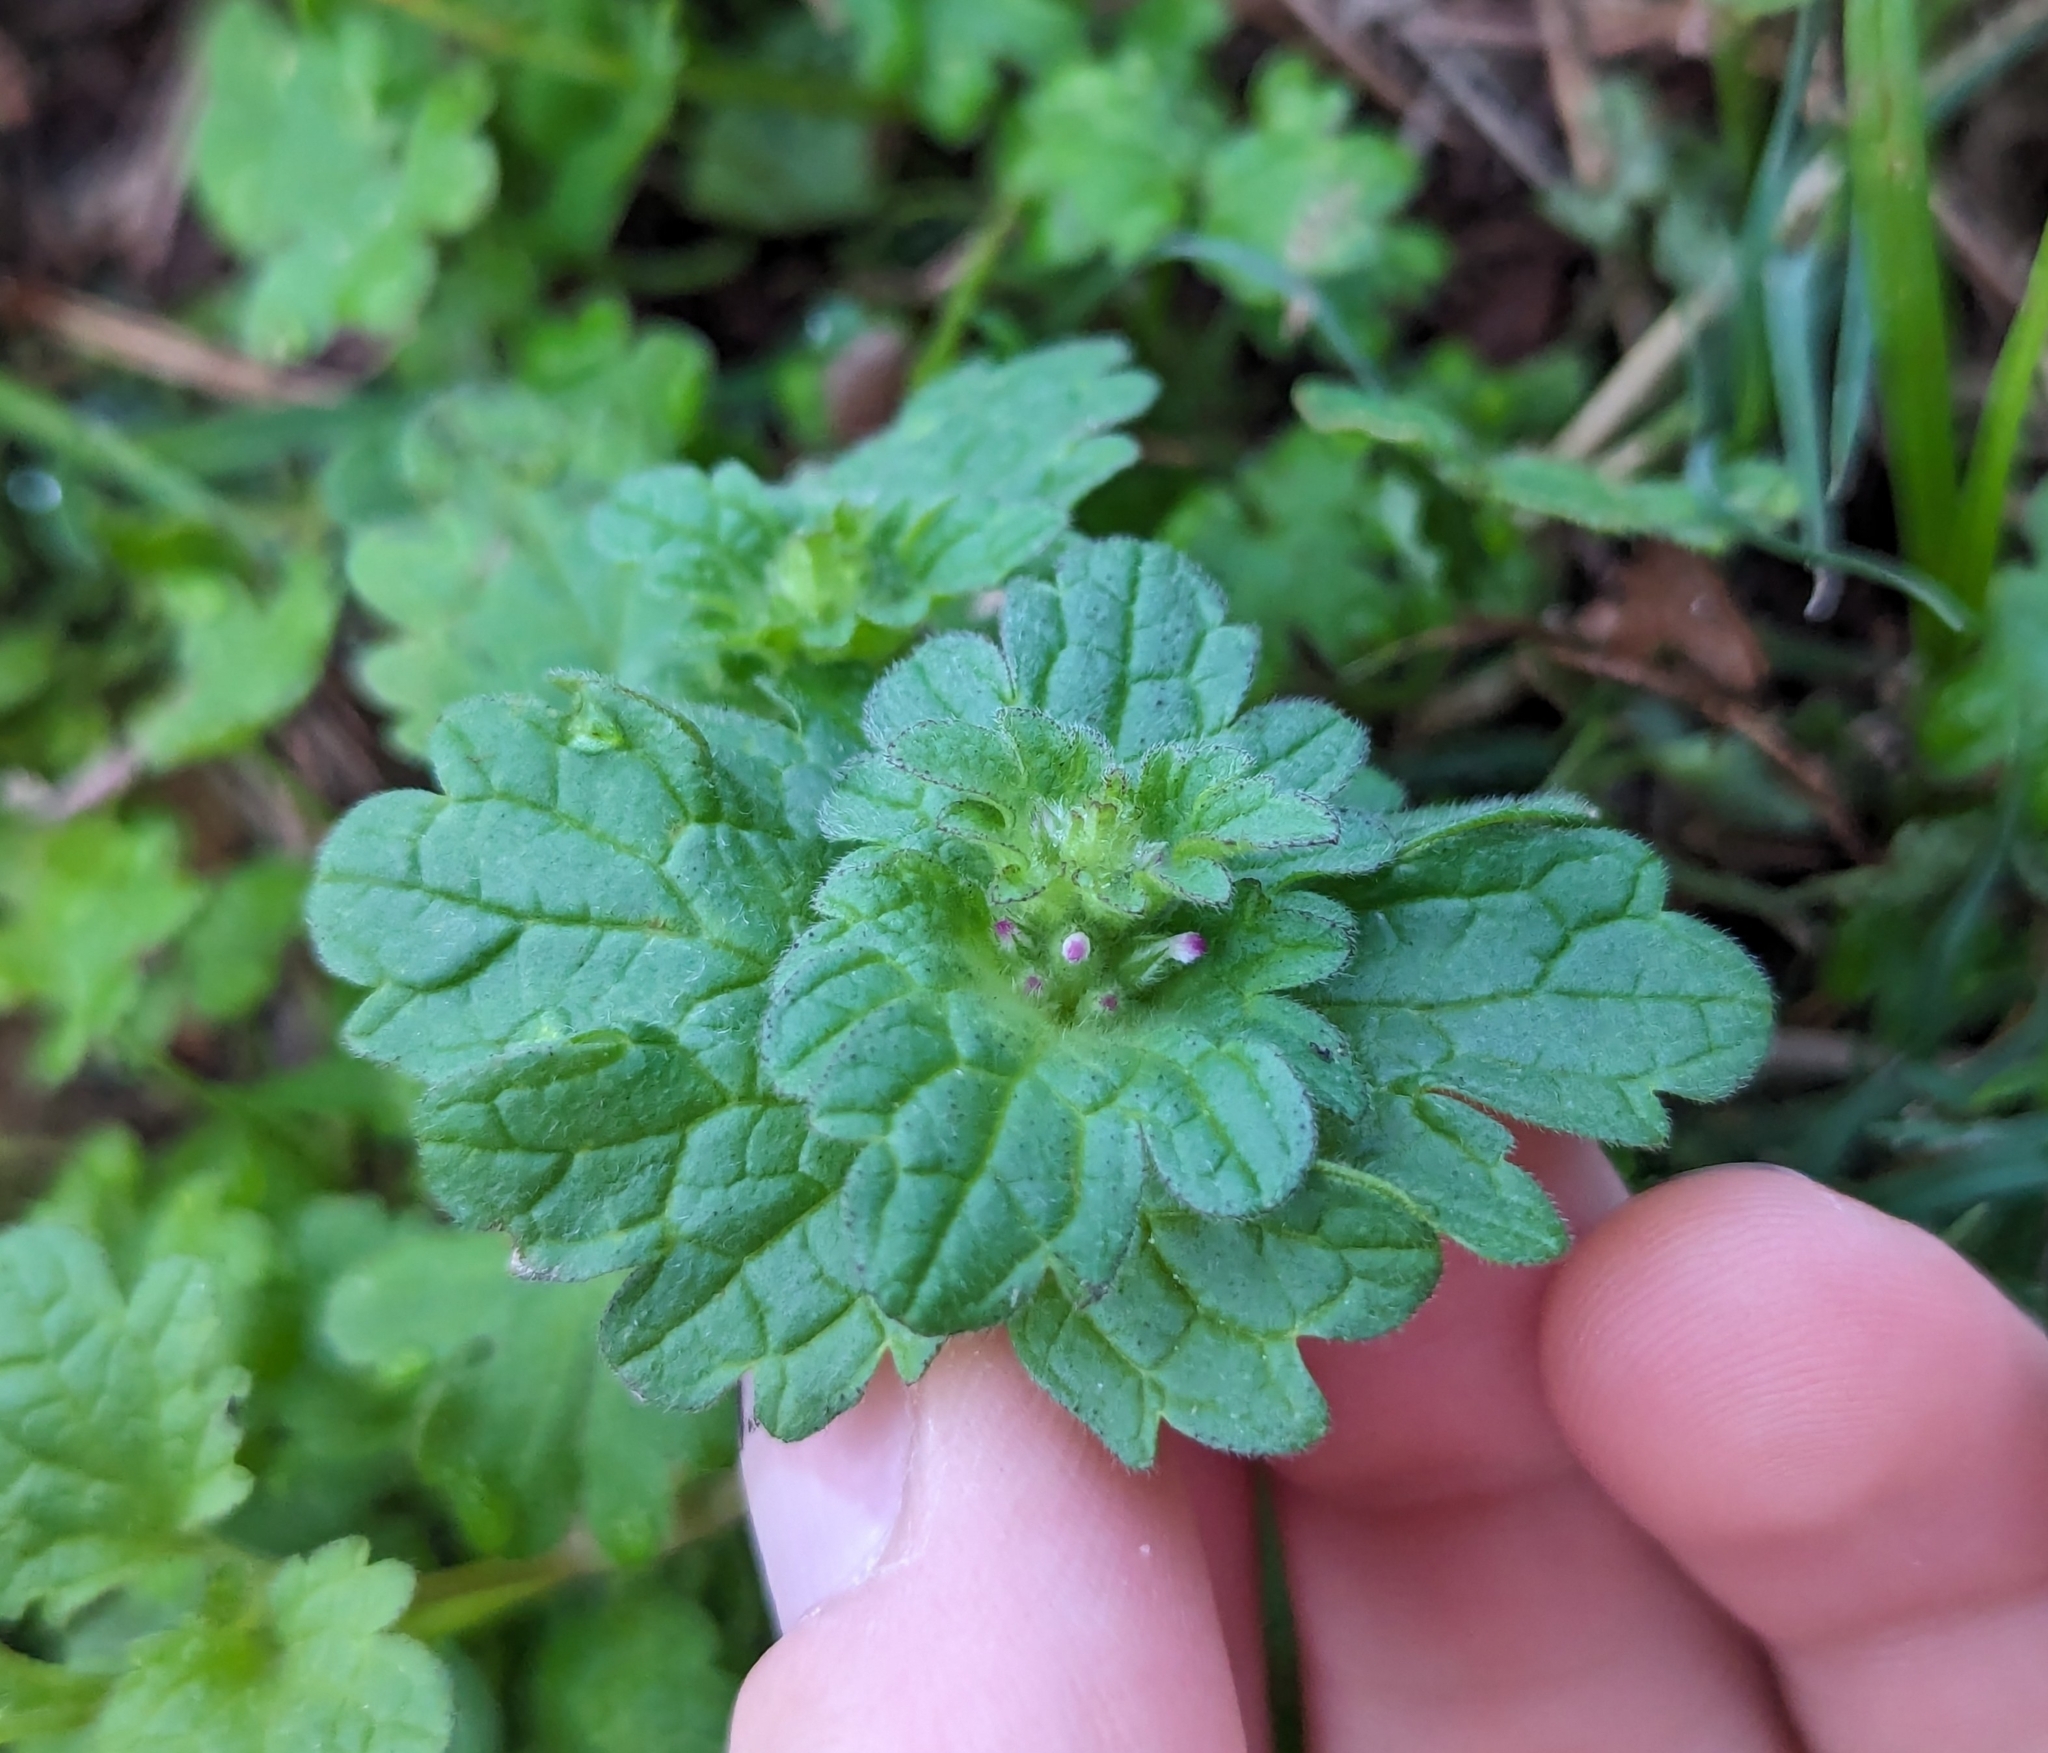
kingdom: Plantae
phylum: Tracheophyta
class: Magnoliopsida
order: Lamiales
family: Lamiaceae
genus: Lamium
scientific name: Lamium amplexicaule
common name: Henbit dead-nettle
